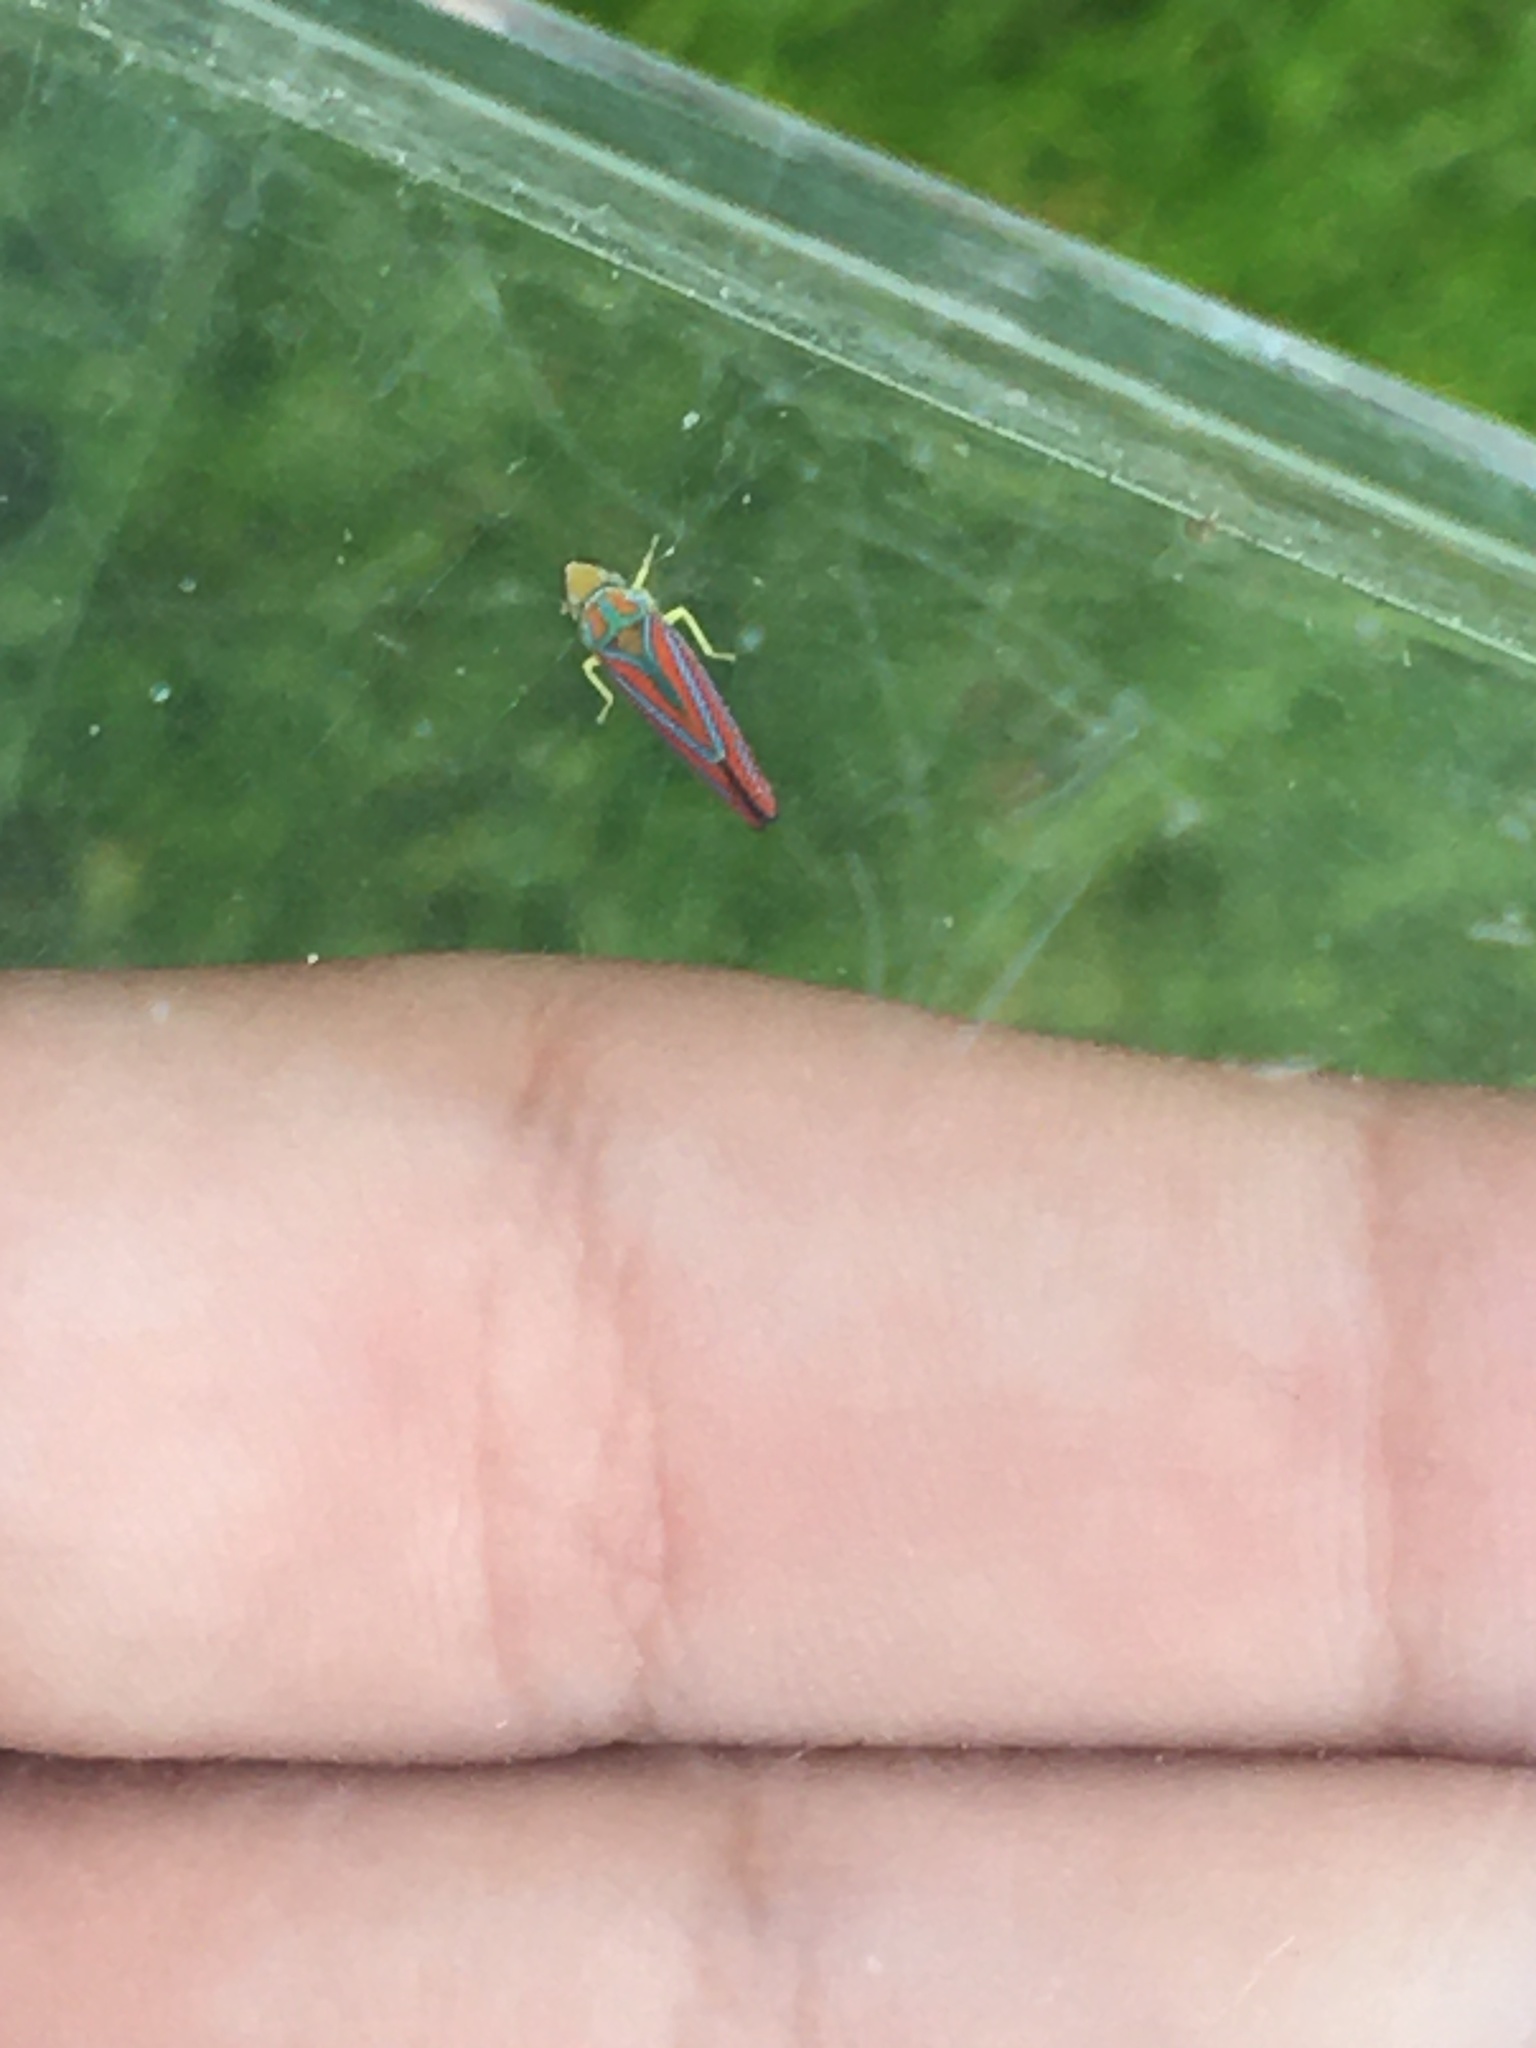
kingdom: Animalia
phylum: Arthropoda
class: Insecta
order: Hemiptera
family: Cicadellidae
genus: Graphocephala
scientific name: Graphocephala coccinea
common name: Candy-striped leafhopper
